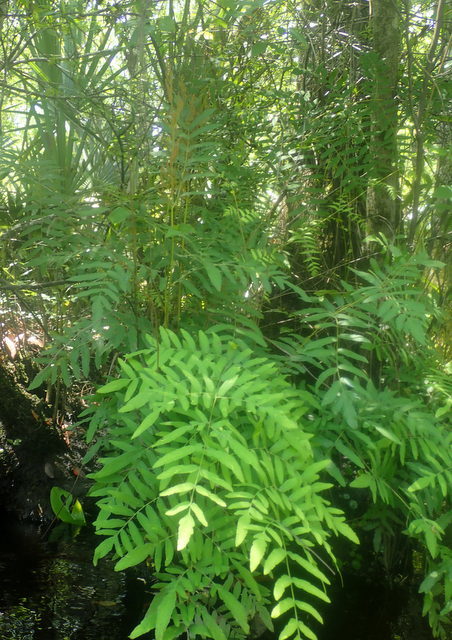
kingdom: Plantae
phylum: Tracheophyta
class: Polypodiopsida
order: Osmundales
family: Osmundaceae
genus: Osmunda
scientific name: Osmunda spectabilis
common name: American royal fern
